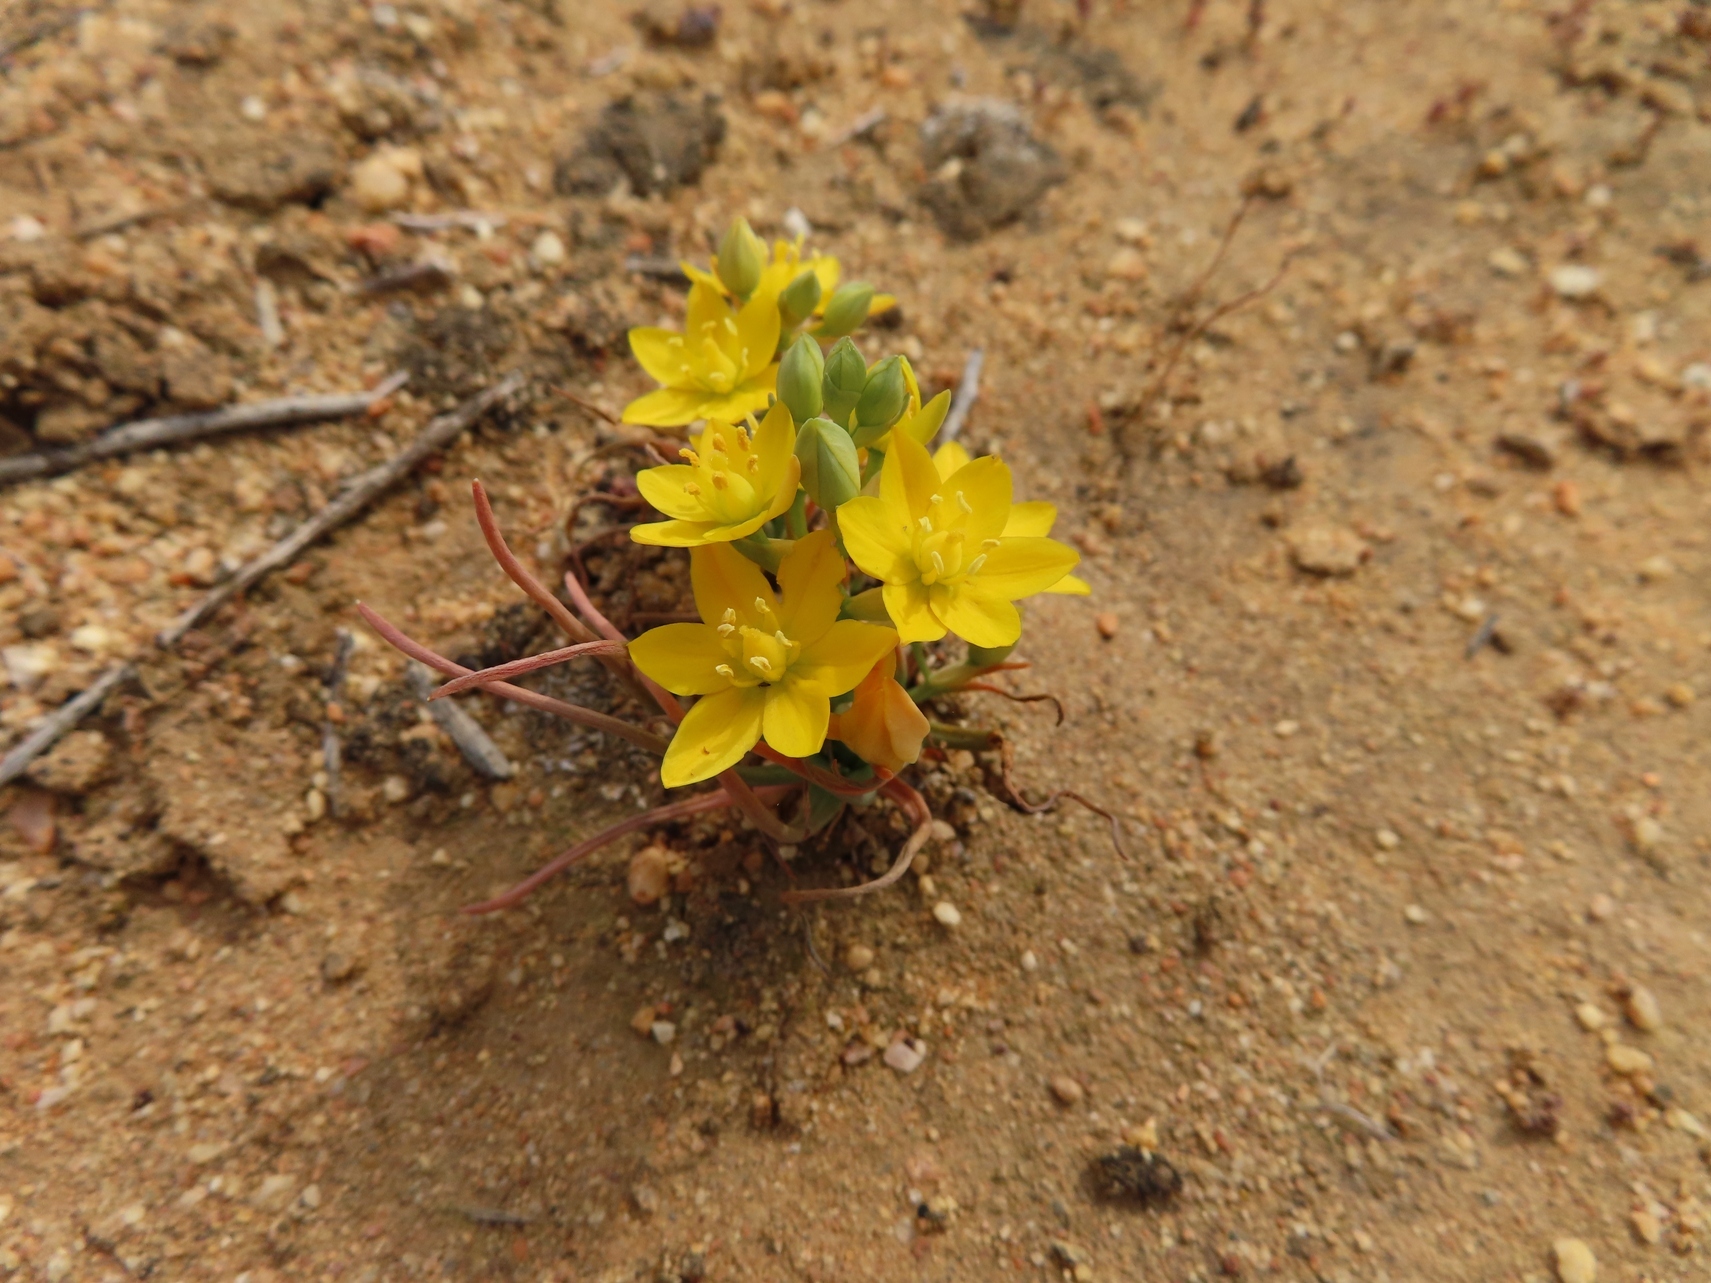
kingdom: Plantae
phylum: Tracheophyta
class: Liliopsida
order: Asparagales
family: Asparagaceae
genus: Ornithogalum
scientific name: Ornithogalum rupestre
